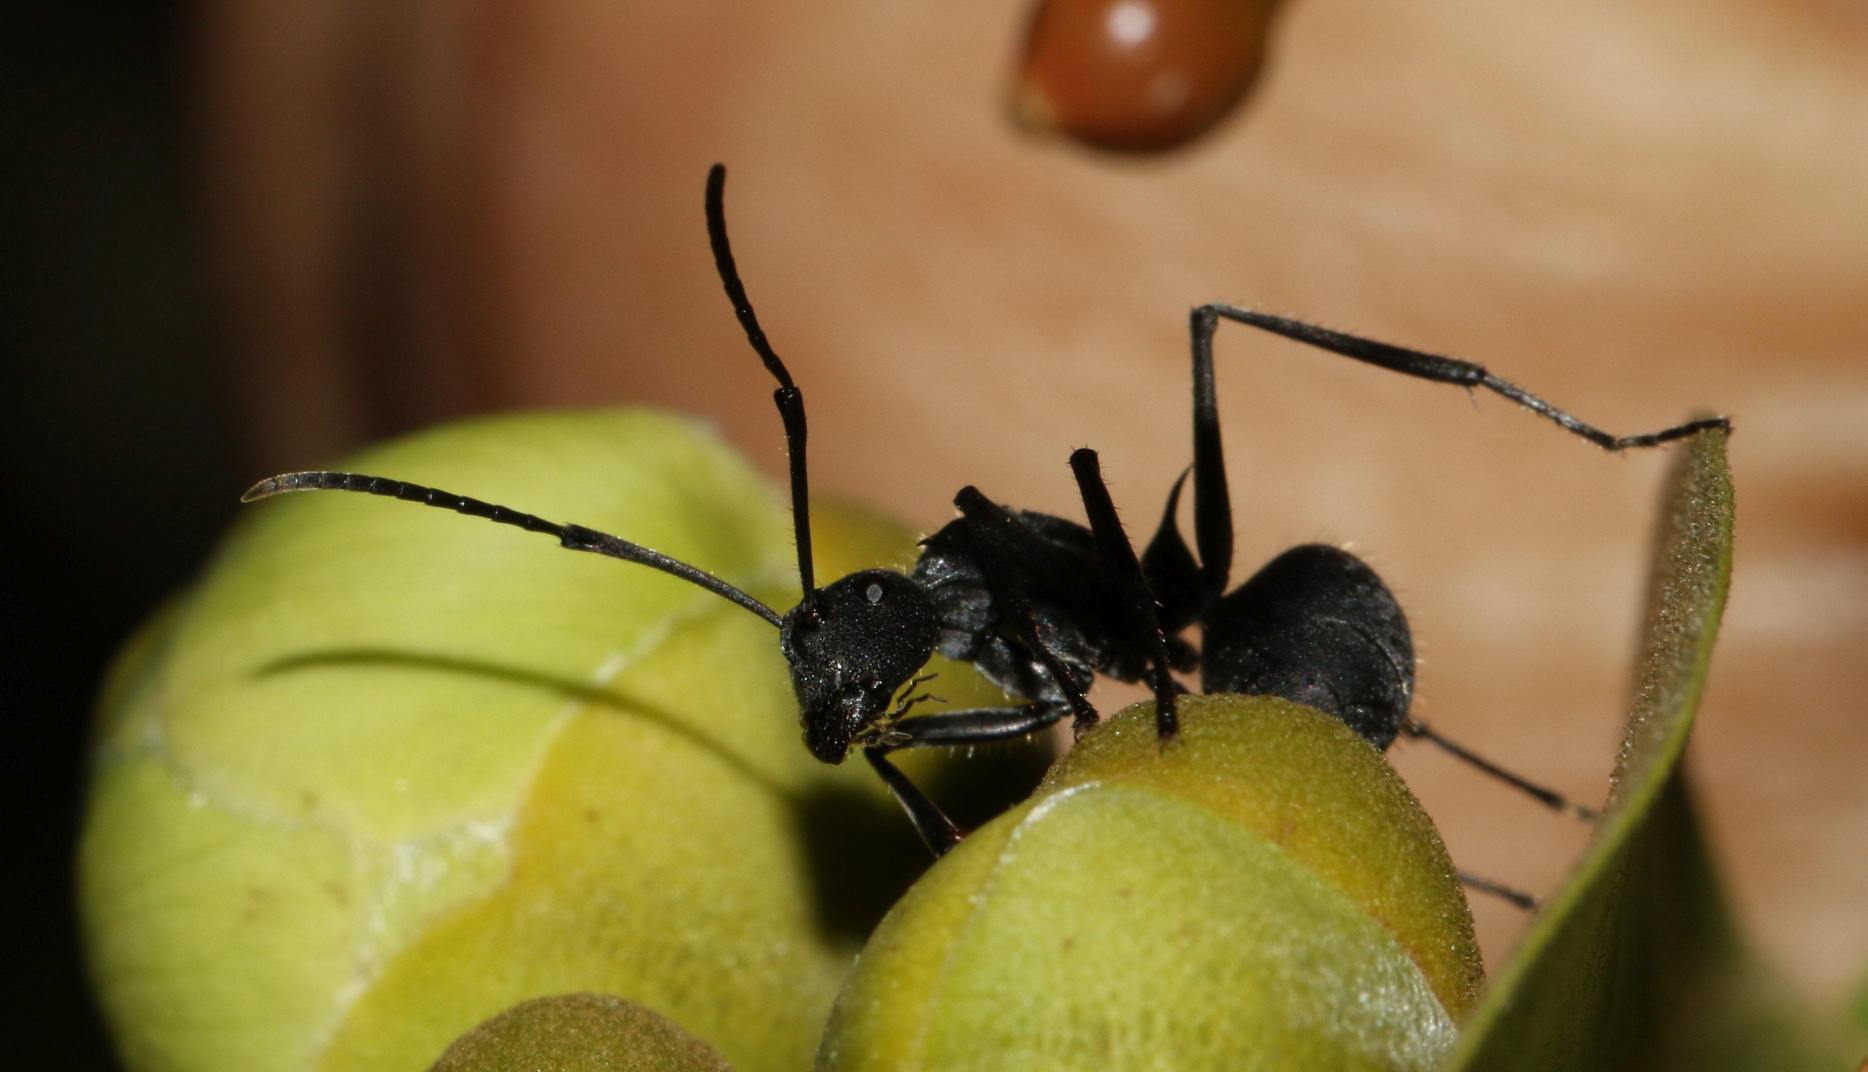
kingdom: Animalia
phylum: Arthropoda
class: Insecta
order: Hymenoptera
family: Formicidae
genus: Polyrhachis
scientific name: Polyrhachis schistacea
